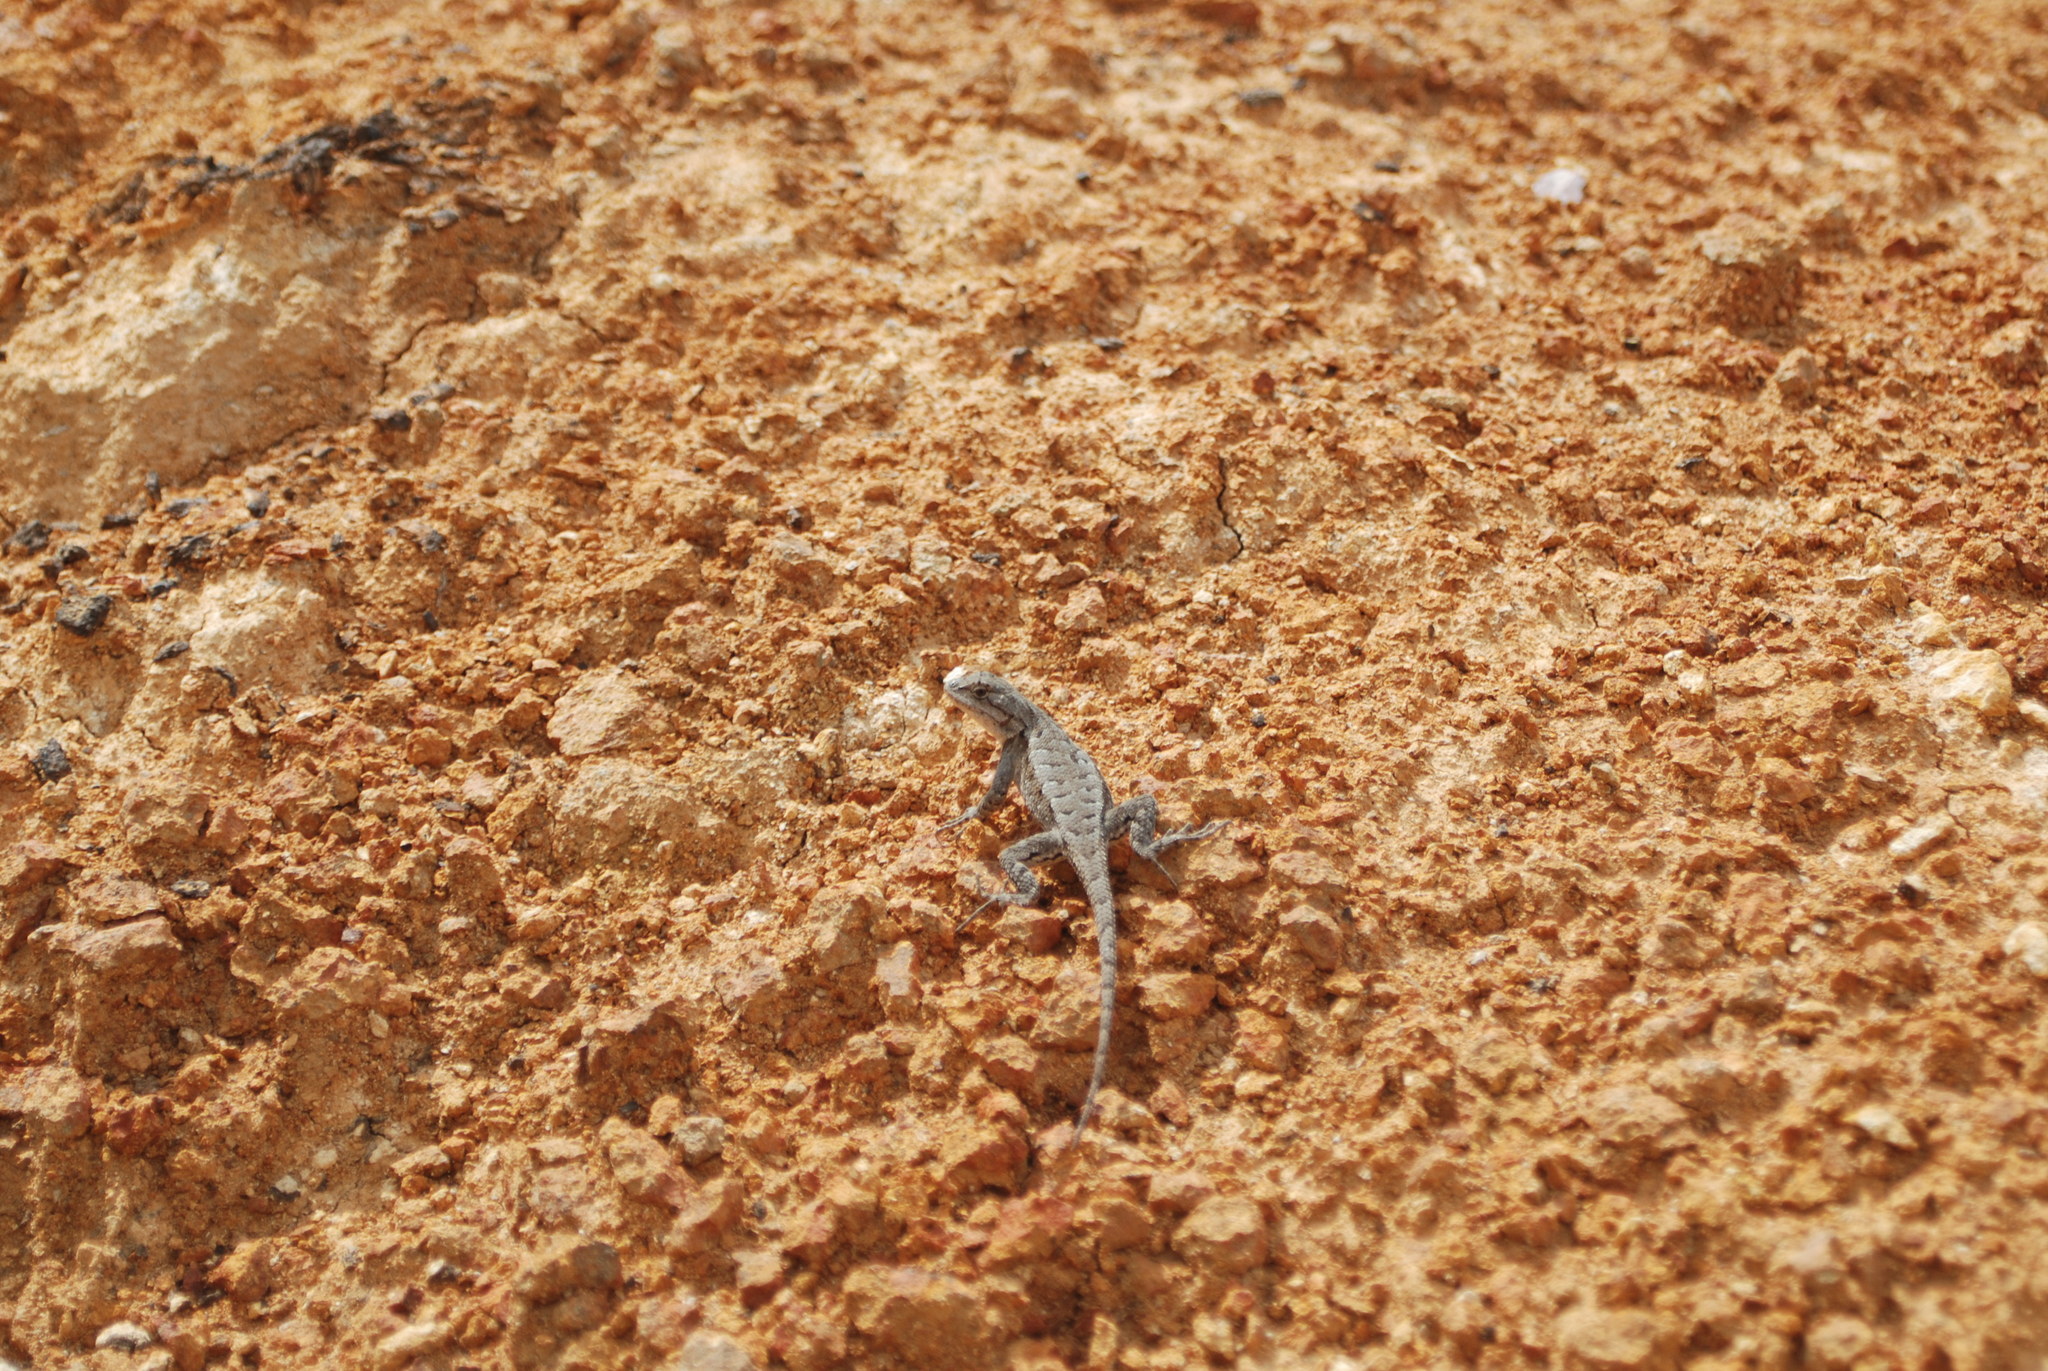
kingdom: Animalia
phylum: Chordata
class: Squamata
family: Phrynosomatidae
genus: Sceloporus
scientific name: Sceloporus consobrinus
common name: Southern prairie lizard
